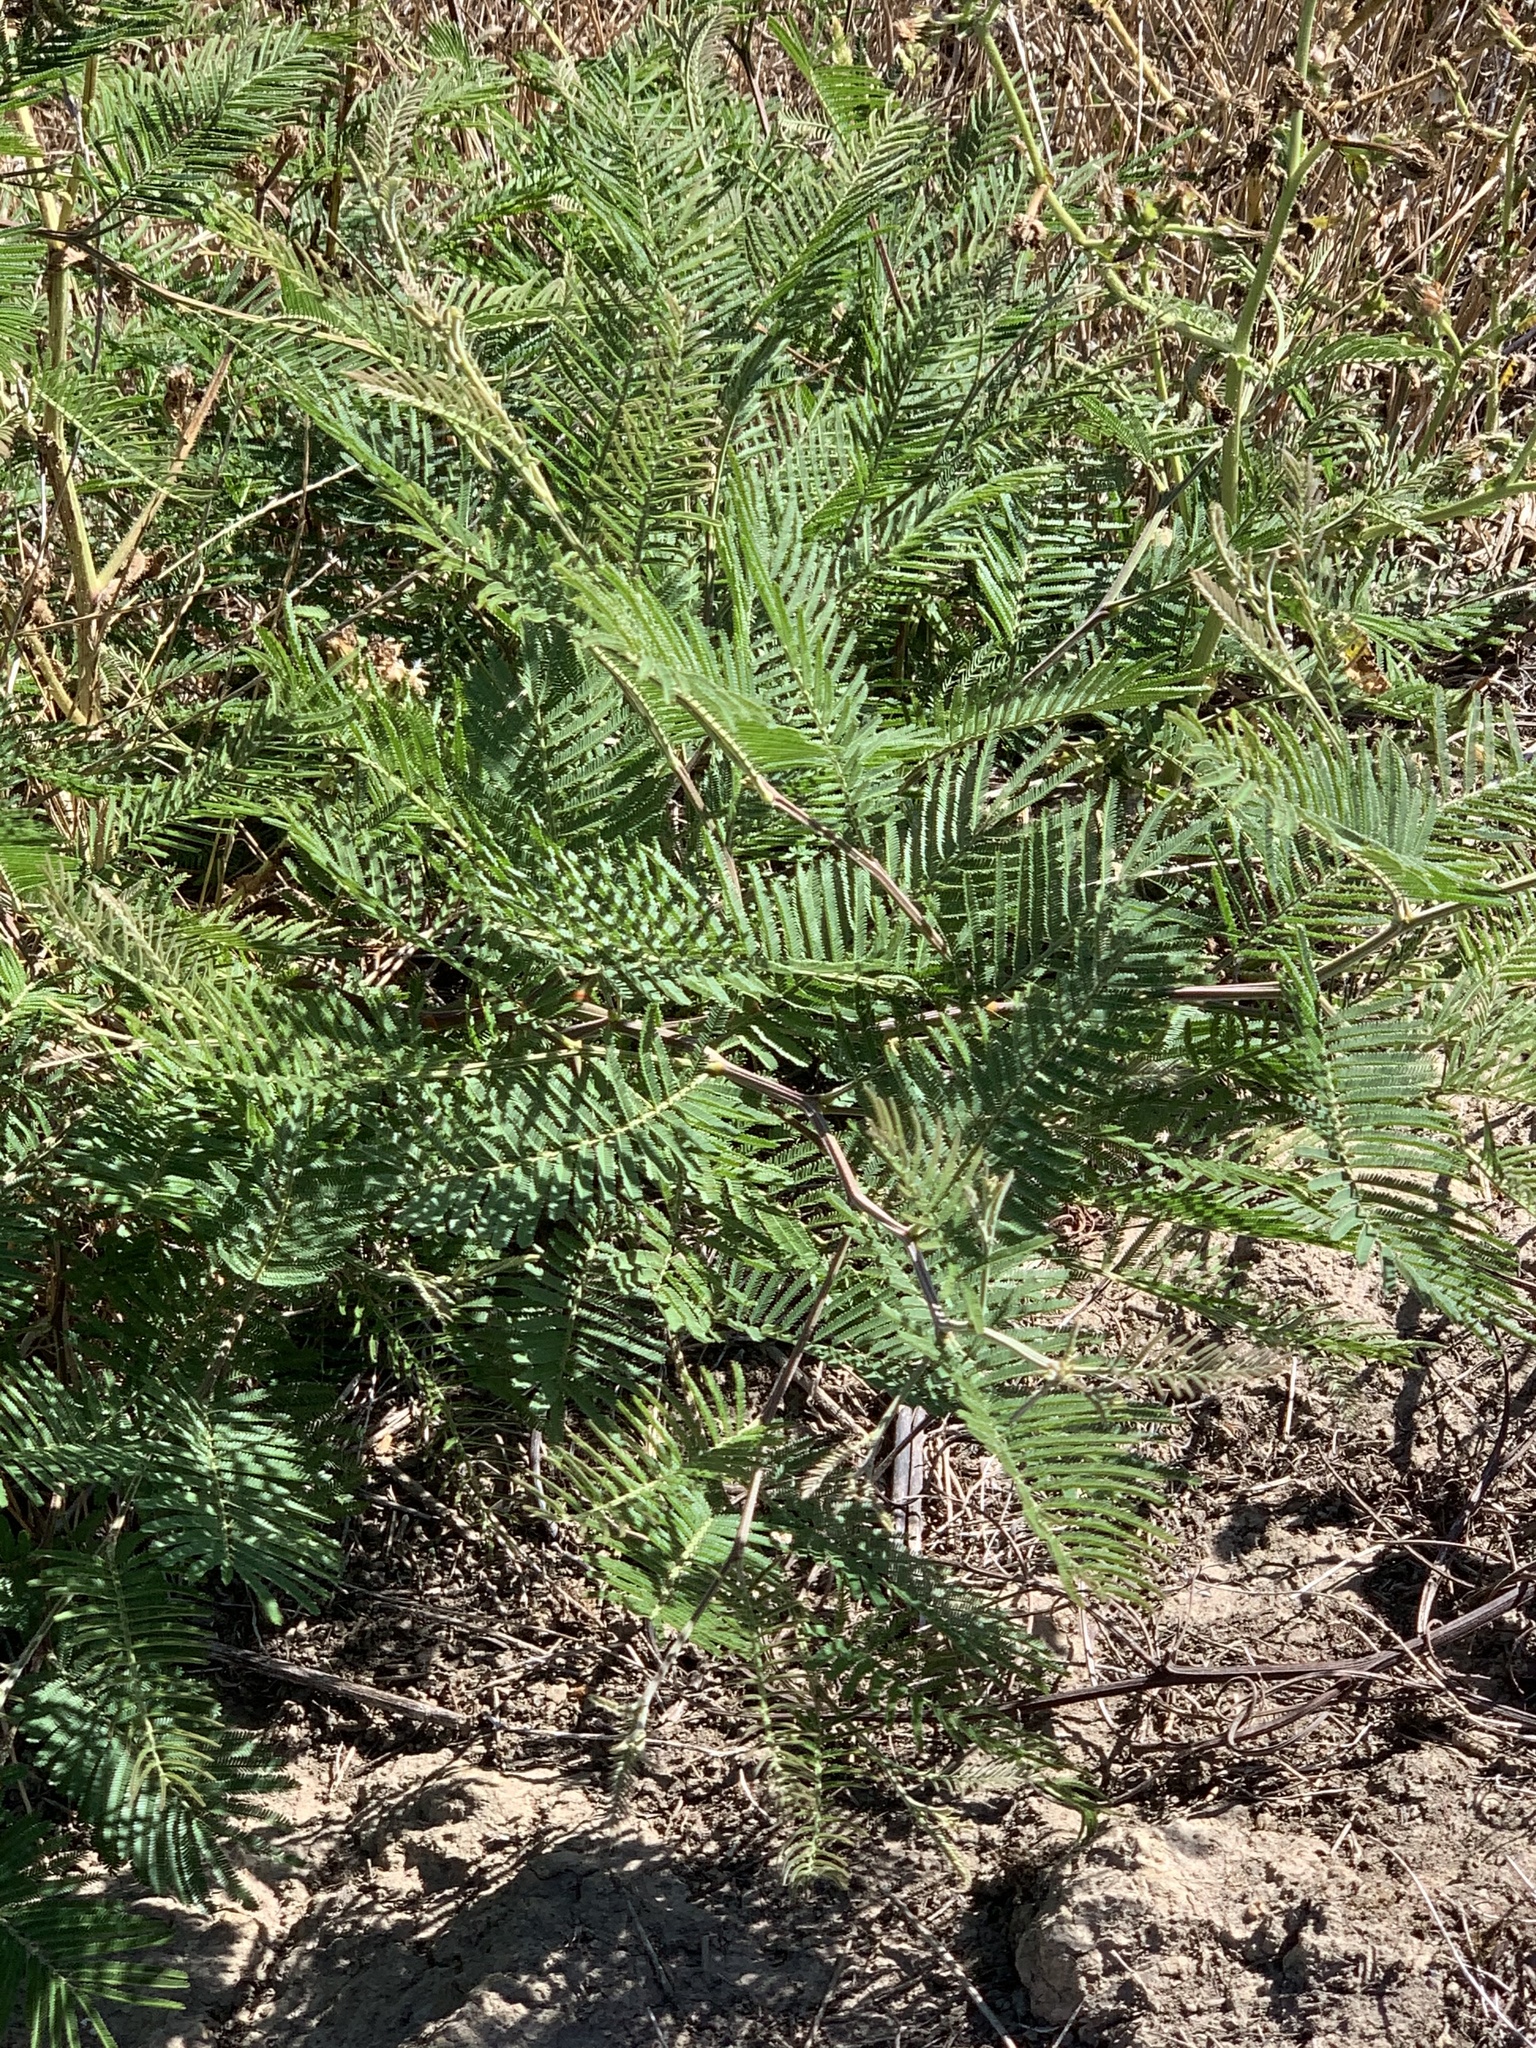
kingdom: Plantae
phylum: Tracheophyta
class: Magnoliopsida
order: Fabales
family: Fabaceae
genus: Acacia
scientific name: Acacia mearnsii
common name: Black wattle
